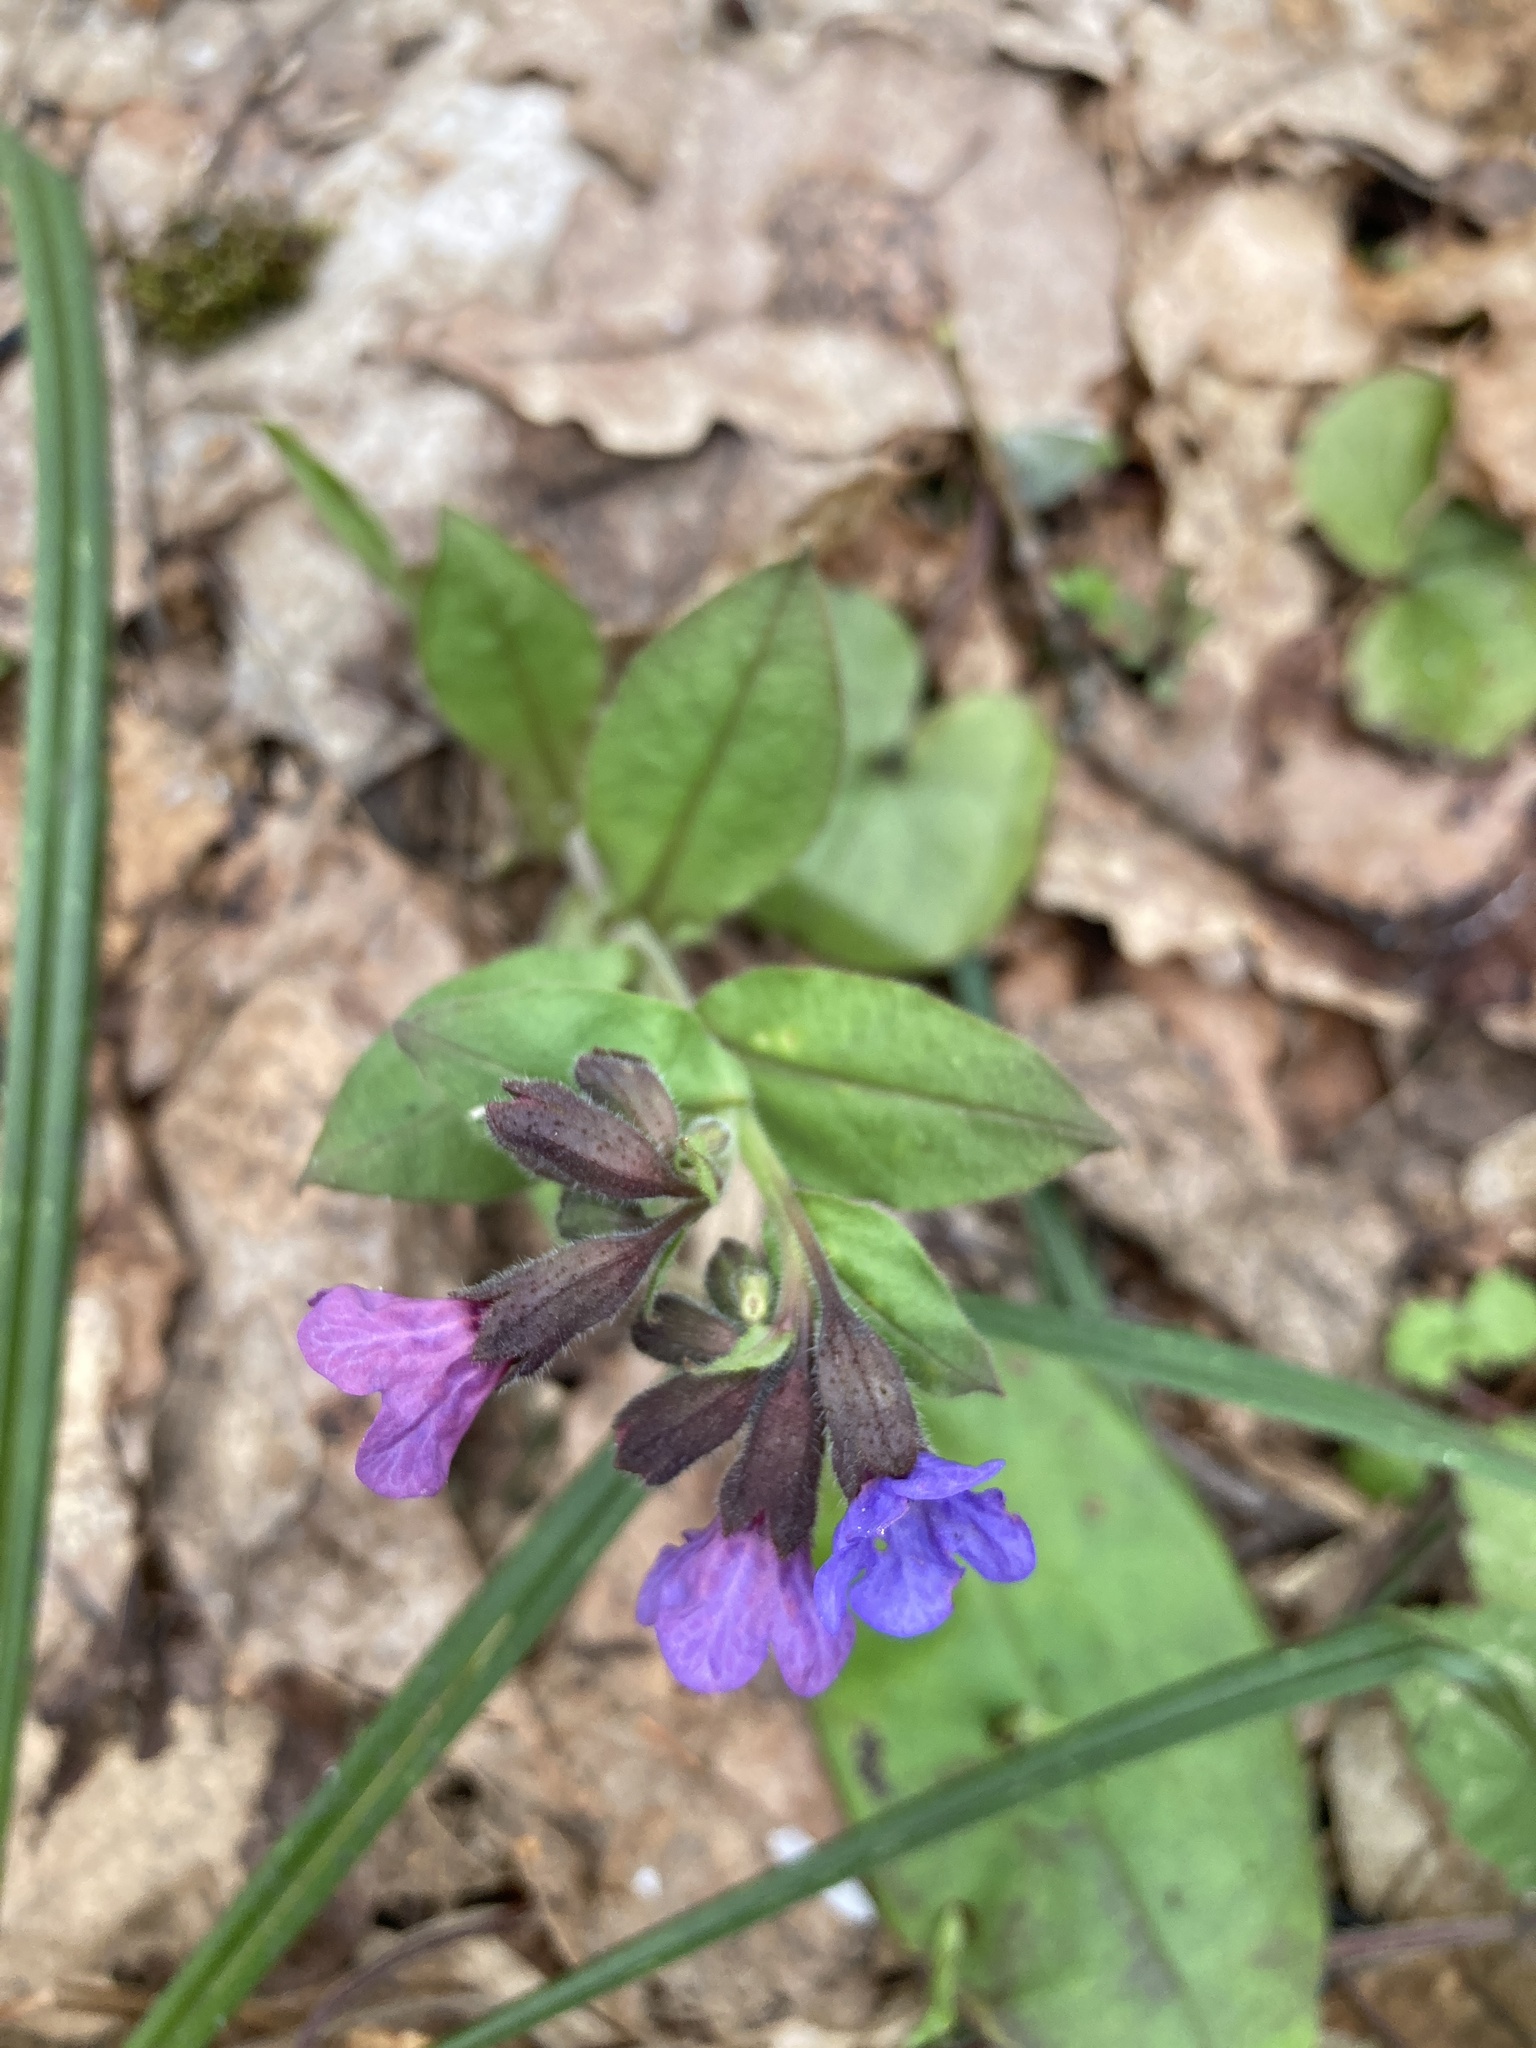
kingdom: Plantae
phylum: Tracheophyta
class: Magnoliopsida
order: Boraginales
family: Boraginaceae
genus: Pulmonaria
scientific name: Pulmonaria obscura
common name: Suffolk lungwort
